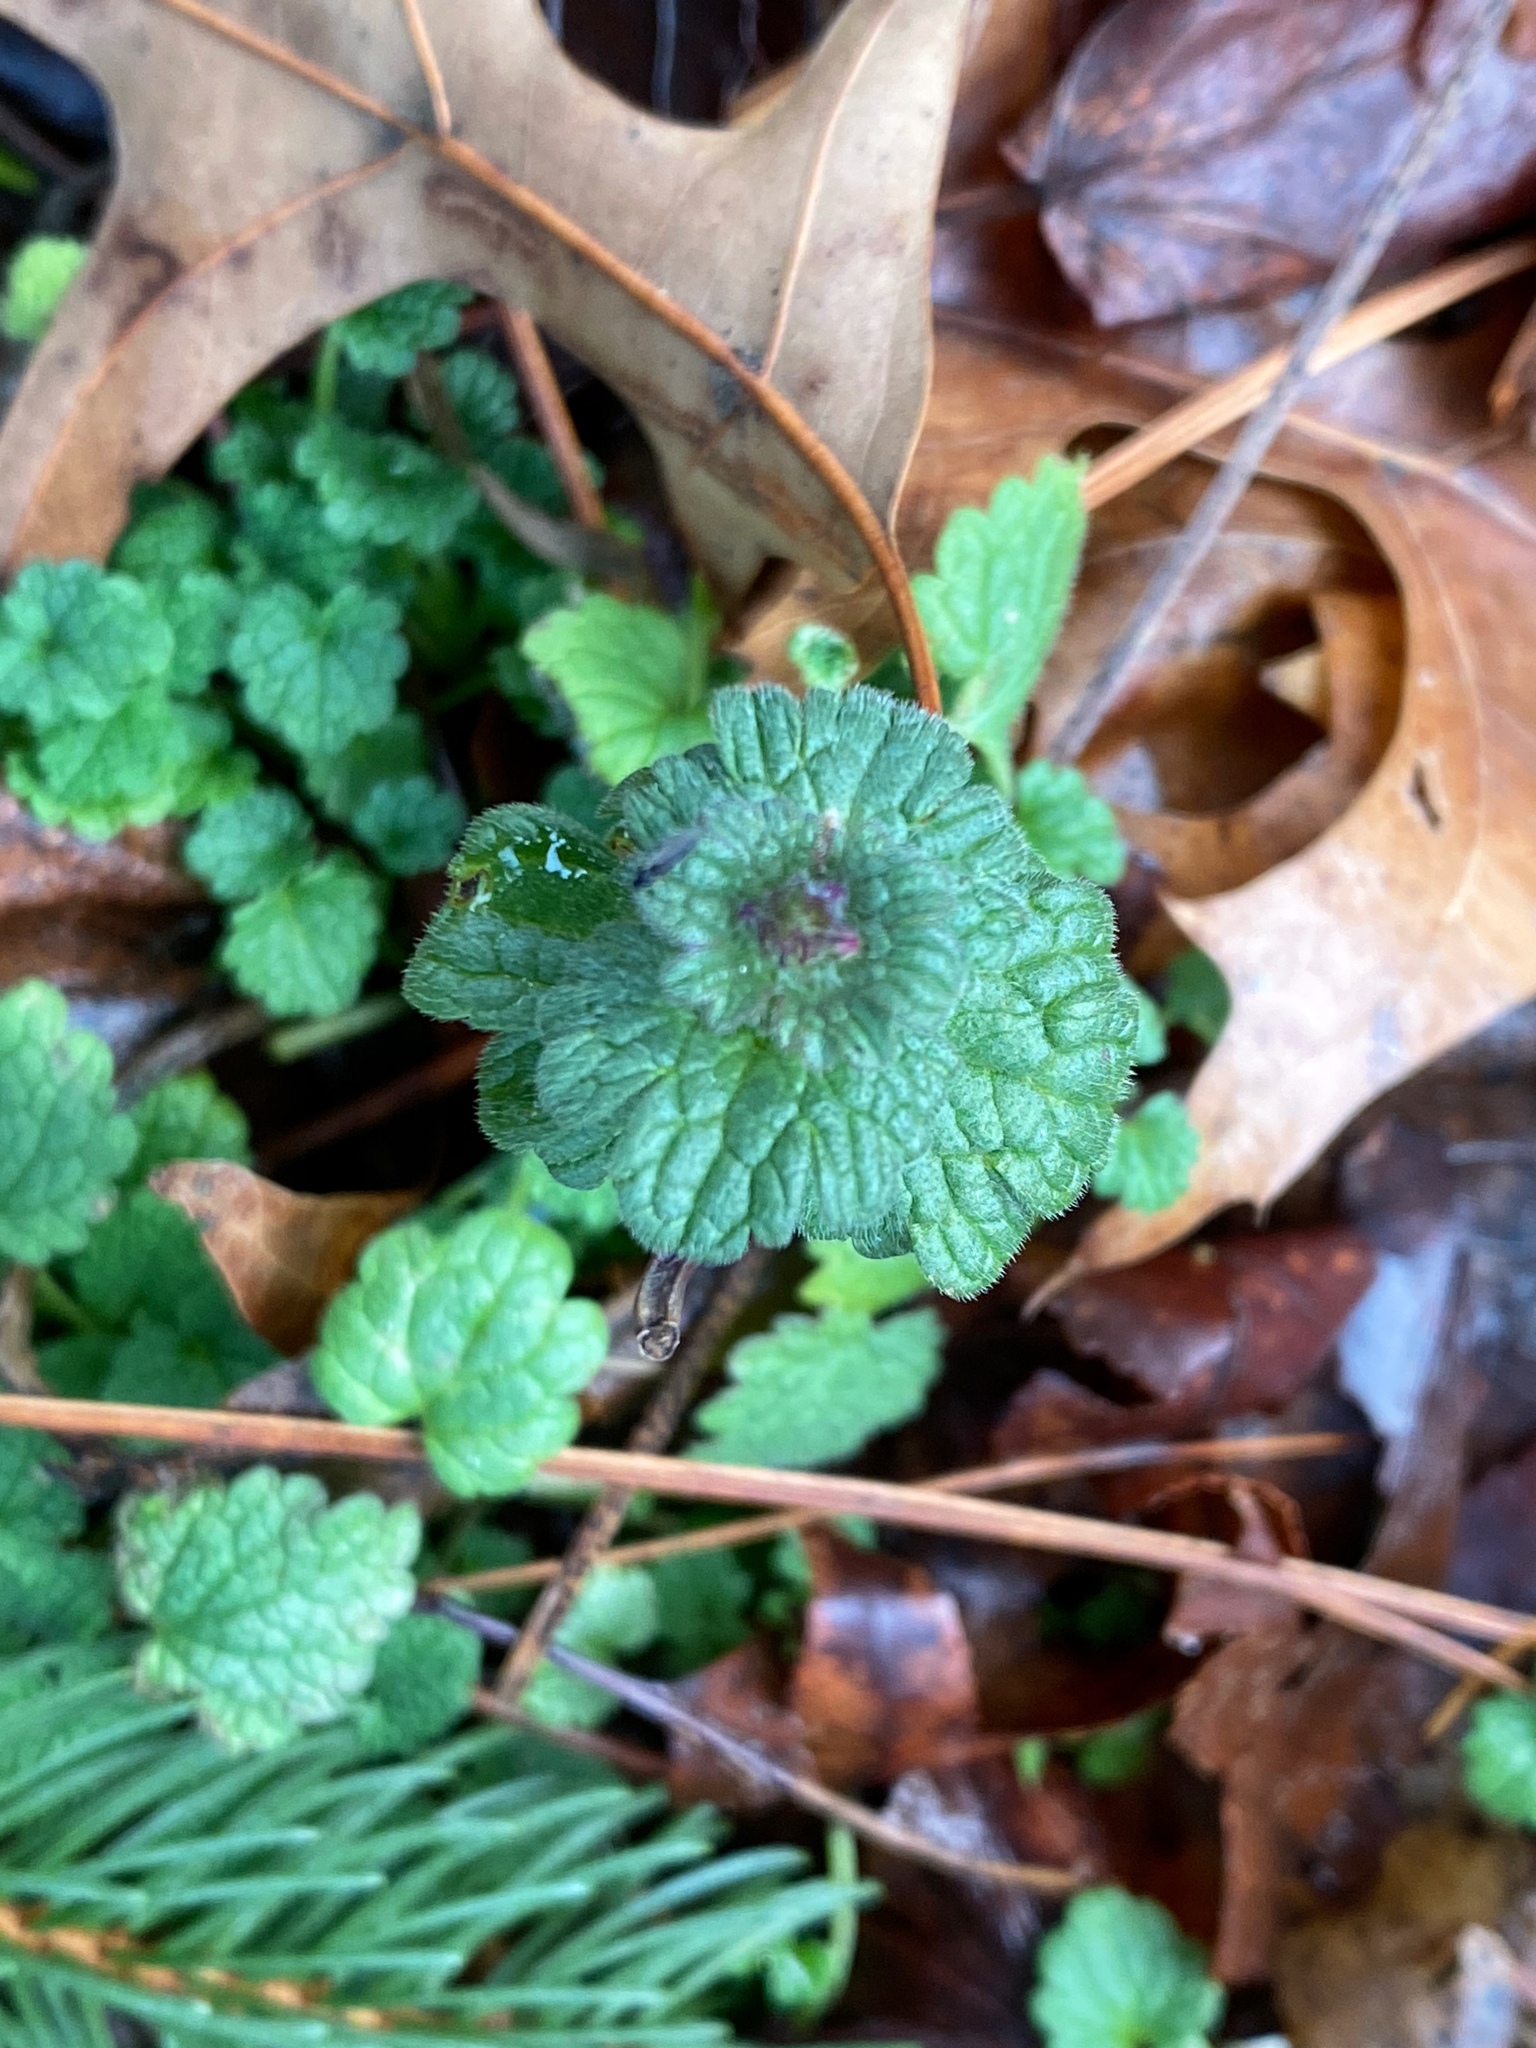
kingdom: Plantae
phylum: Tracheophyta
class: Magnoliopsida
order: Lamiales
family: Lamiaceae
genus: Lamium
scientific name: Lamium amplexicaule
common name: Henbit dead-nettle
